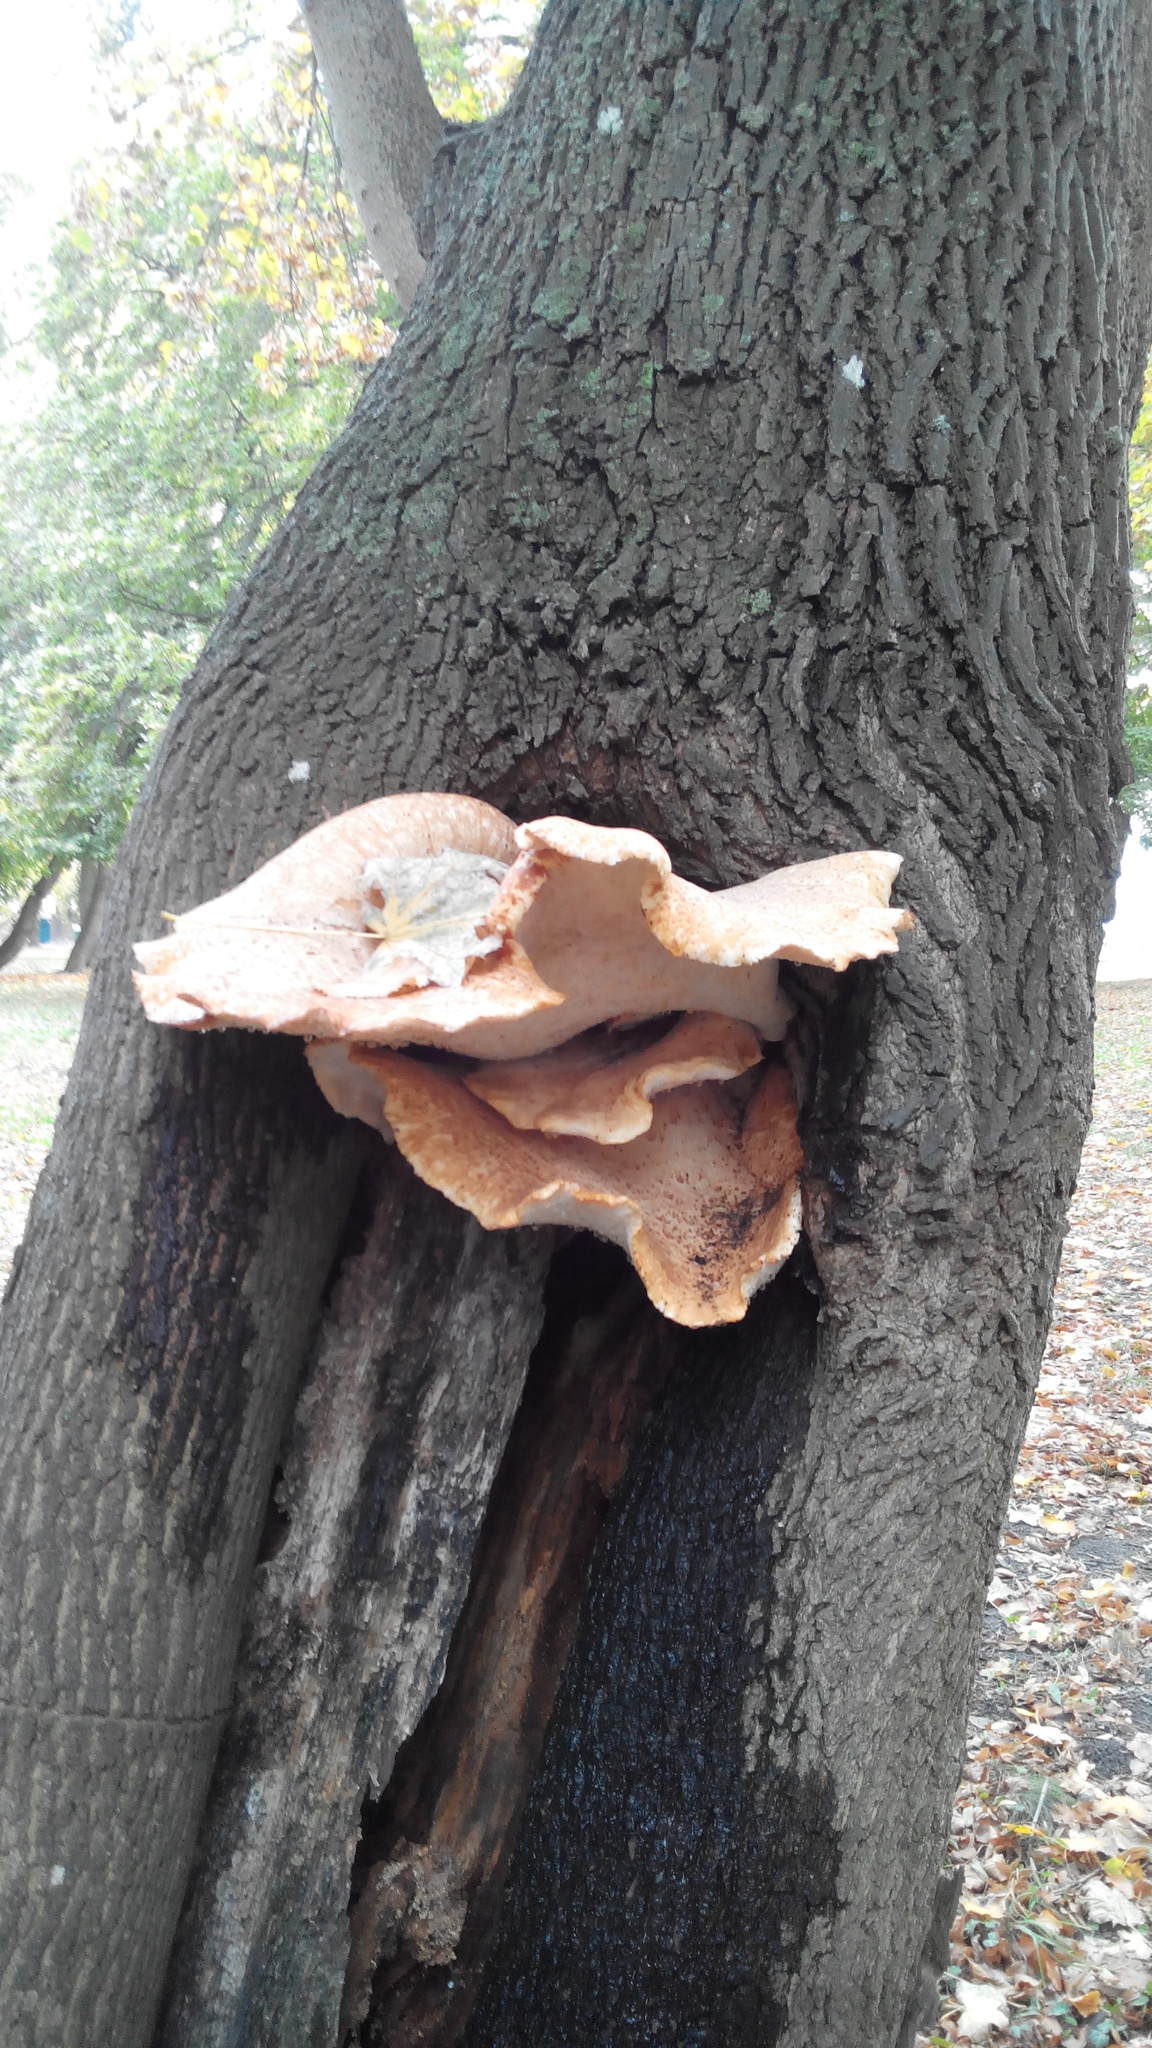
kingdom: Fungi
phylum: Basidiomycota
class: Agaricomycetes
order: Polyporales
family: Polyporaceae
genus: Cerioporus
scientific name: Cerioporus squamosus
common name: Dryad's saddle
